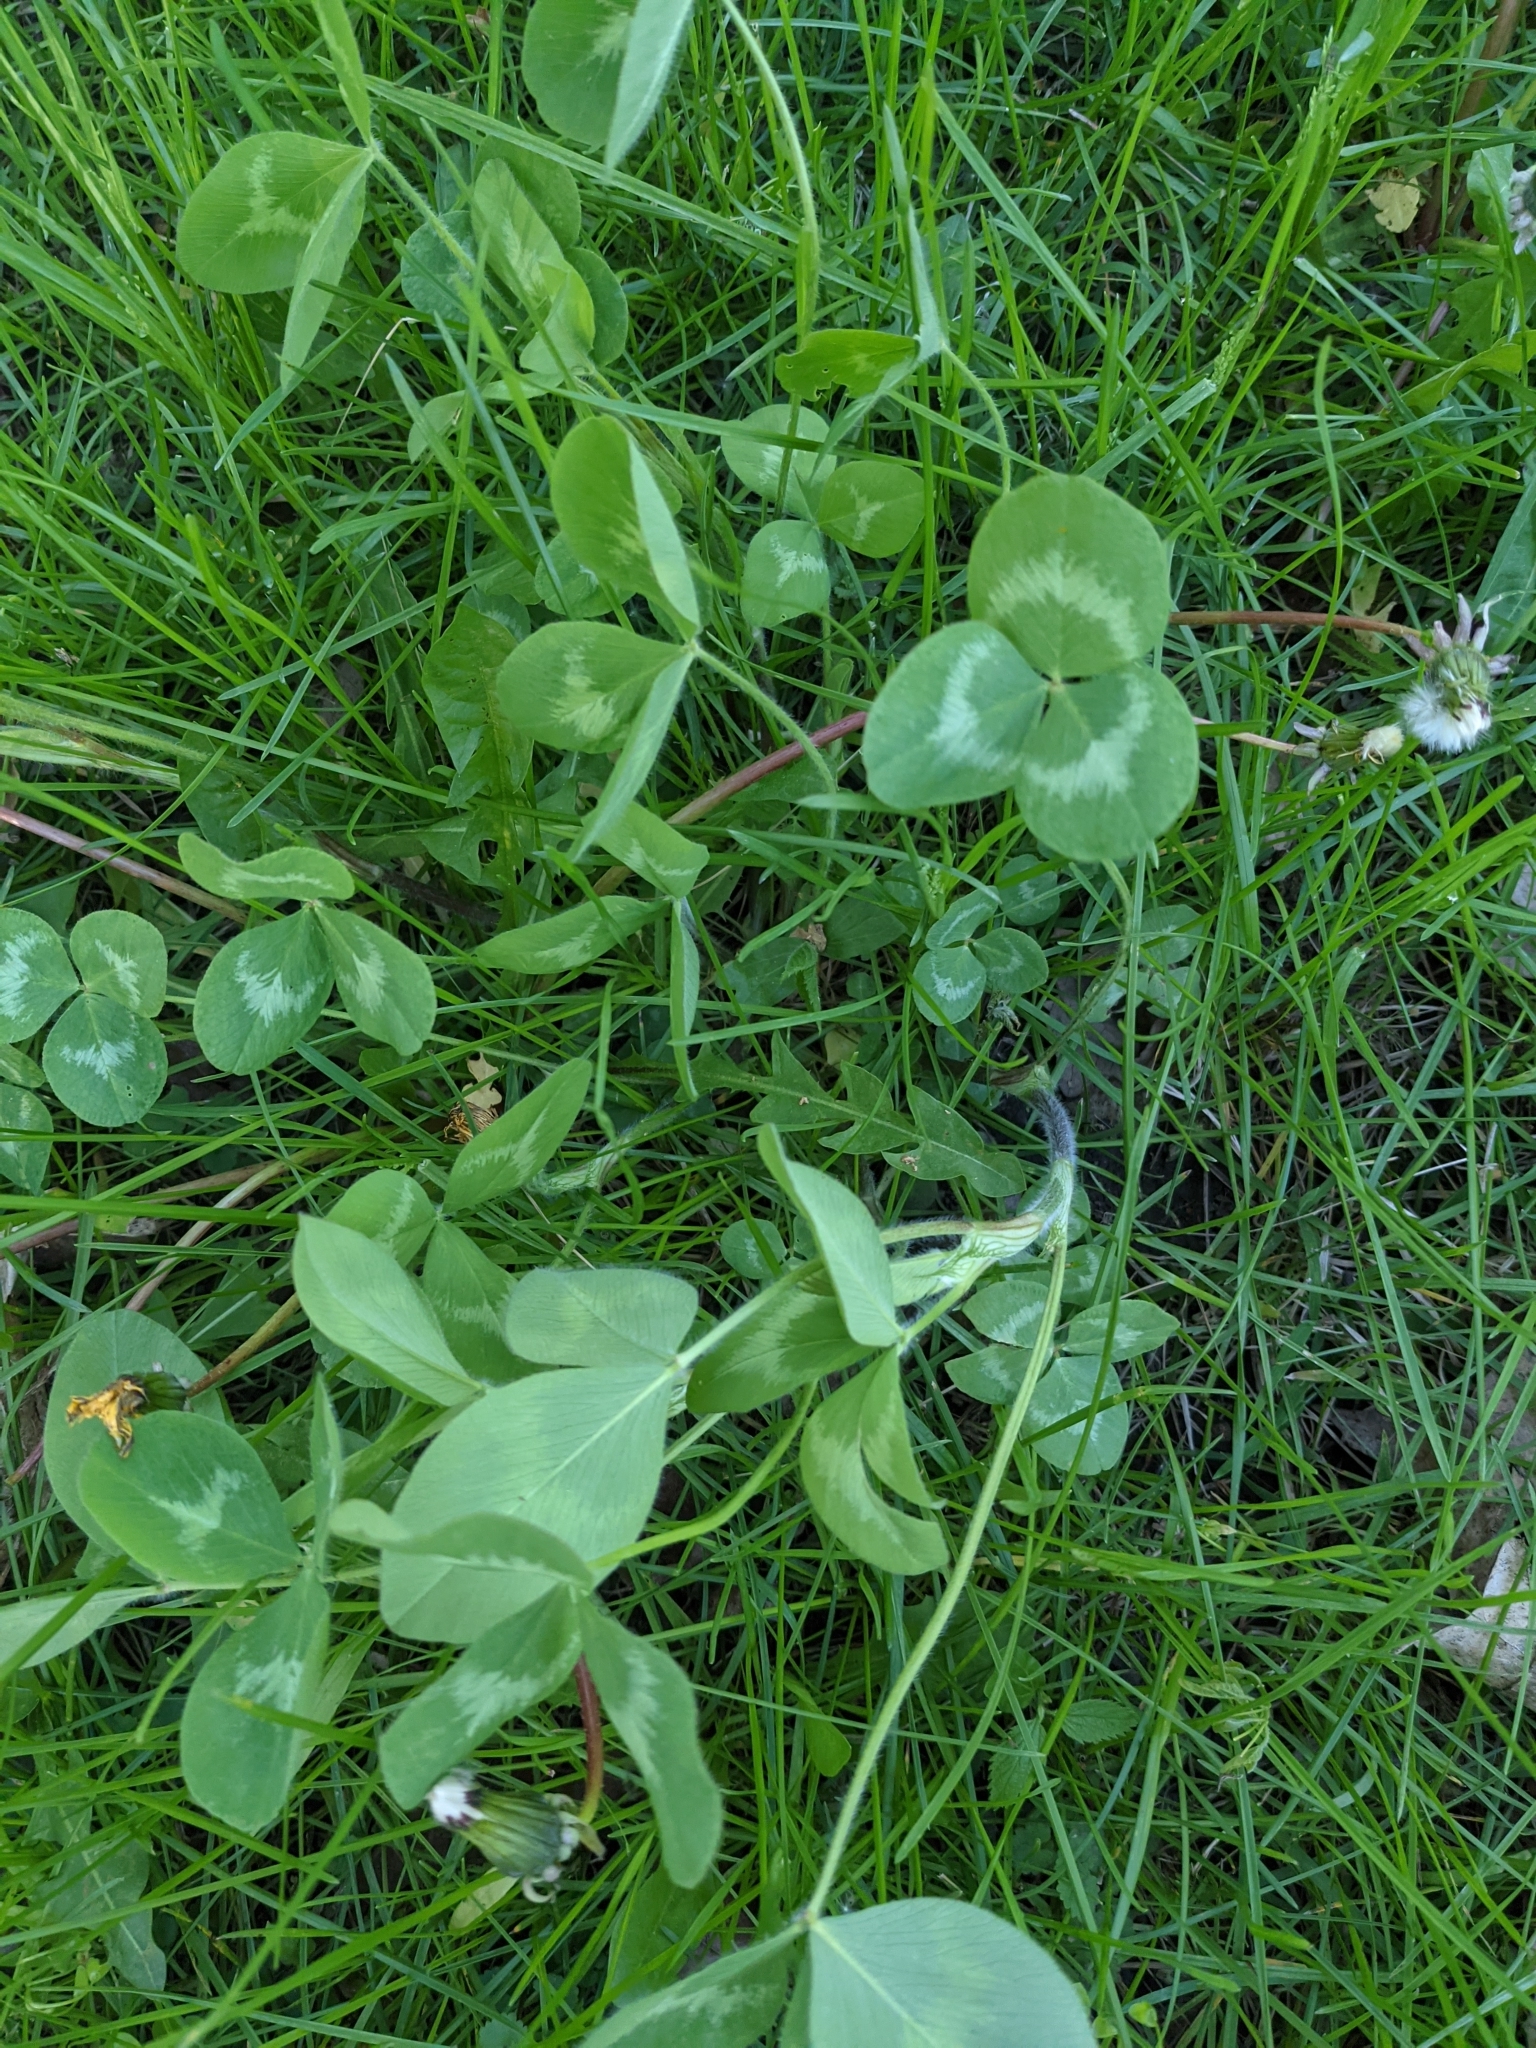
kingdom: Plantae
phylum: Tracheophyta
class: Magnoliopsida
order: Fabales
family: Fabaceae
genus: Trifolium
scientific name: Trifolium pratense
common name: Red clover
